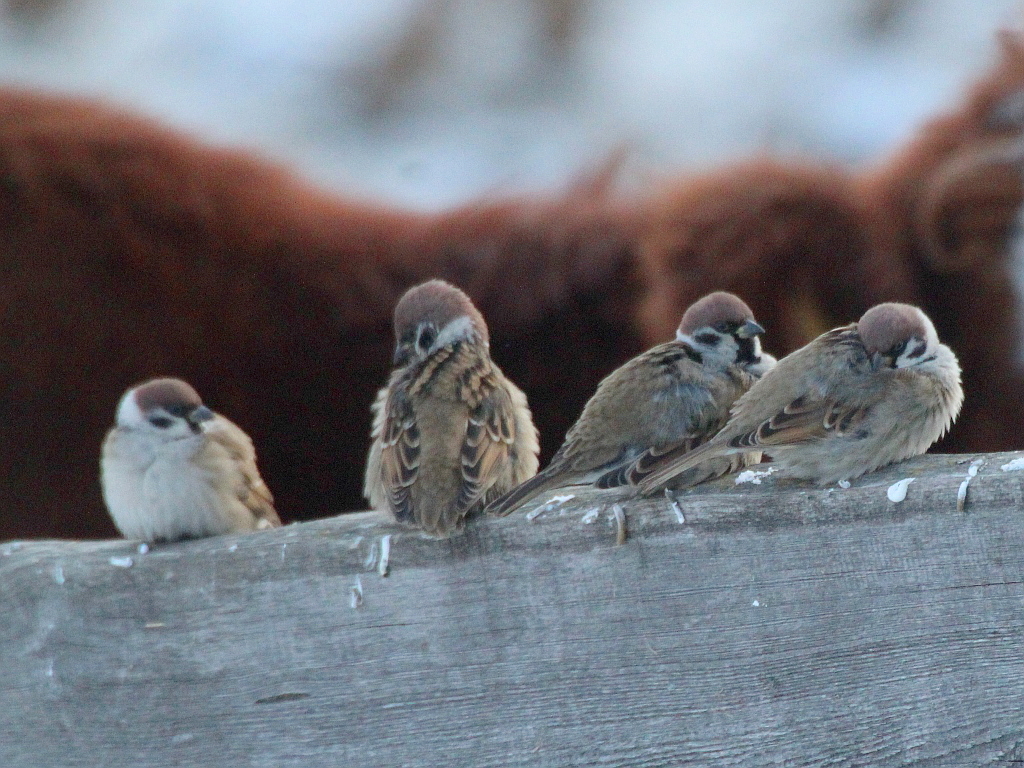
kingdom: Animalia
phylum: Chordata
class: Aves
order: Passeriformes
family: Passeridae
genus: Passer
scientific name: Passer montanus
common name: Eurasian tree sparrow
